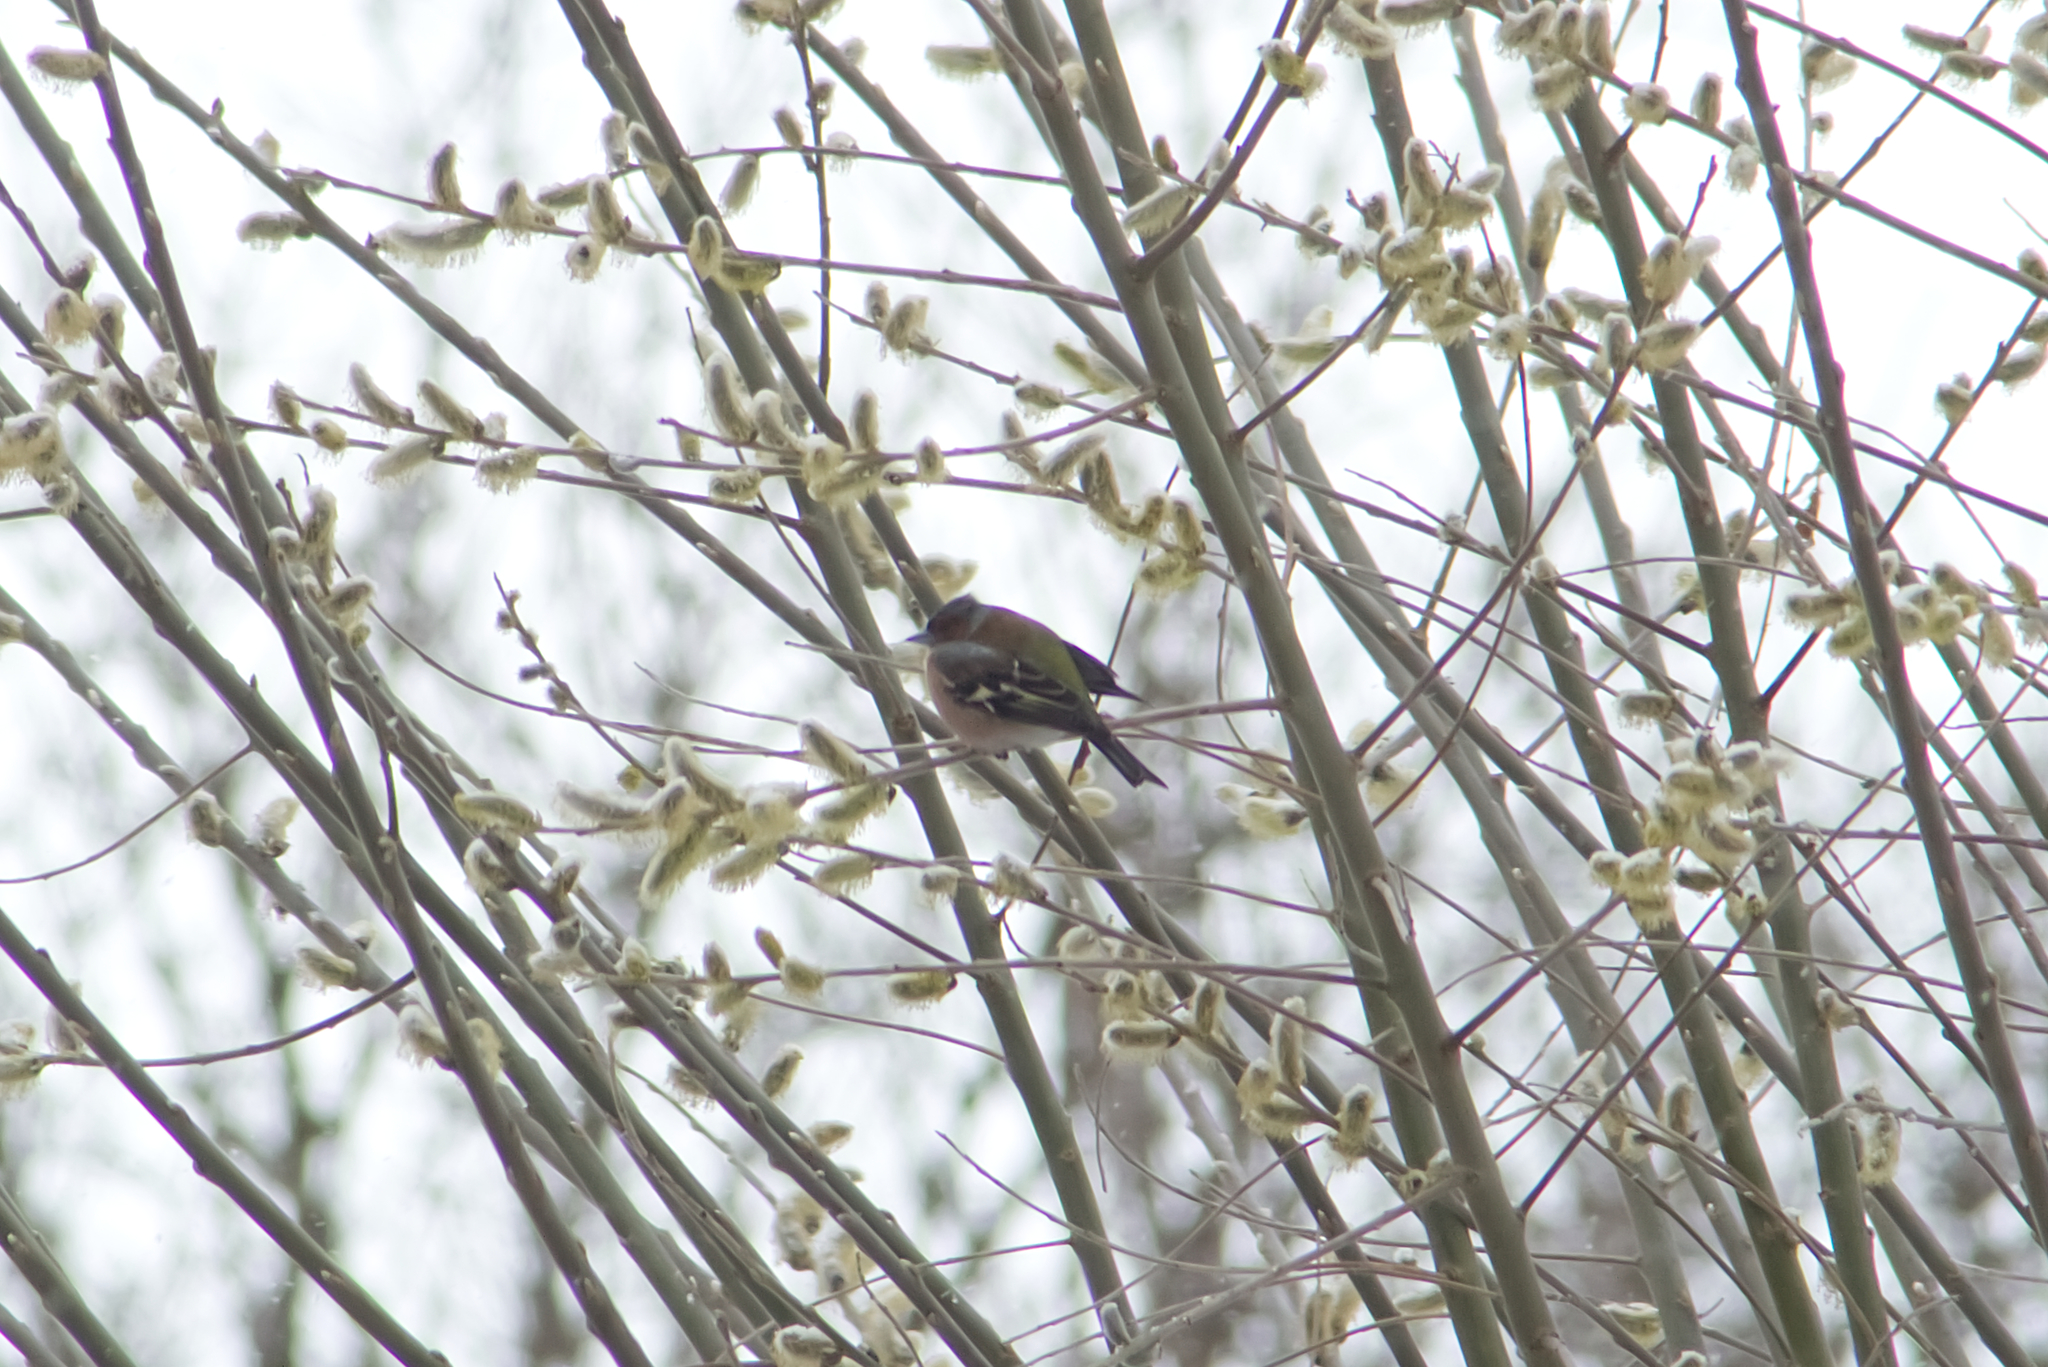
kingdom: Animalia
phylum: Chordata
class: Aves
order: Passeriformes
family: Fringillidae
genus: Fringilla
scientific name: Fringilla coelebs
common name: Common chaffinch
